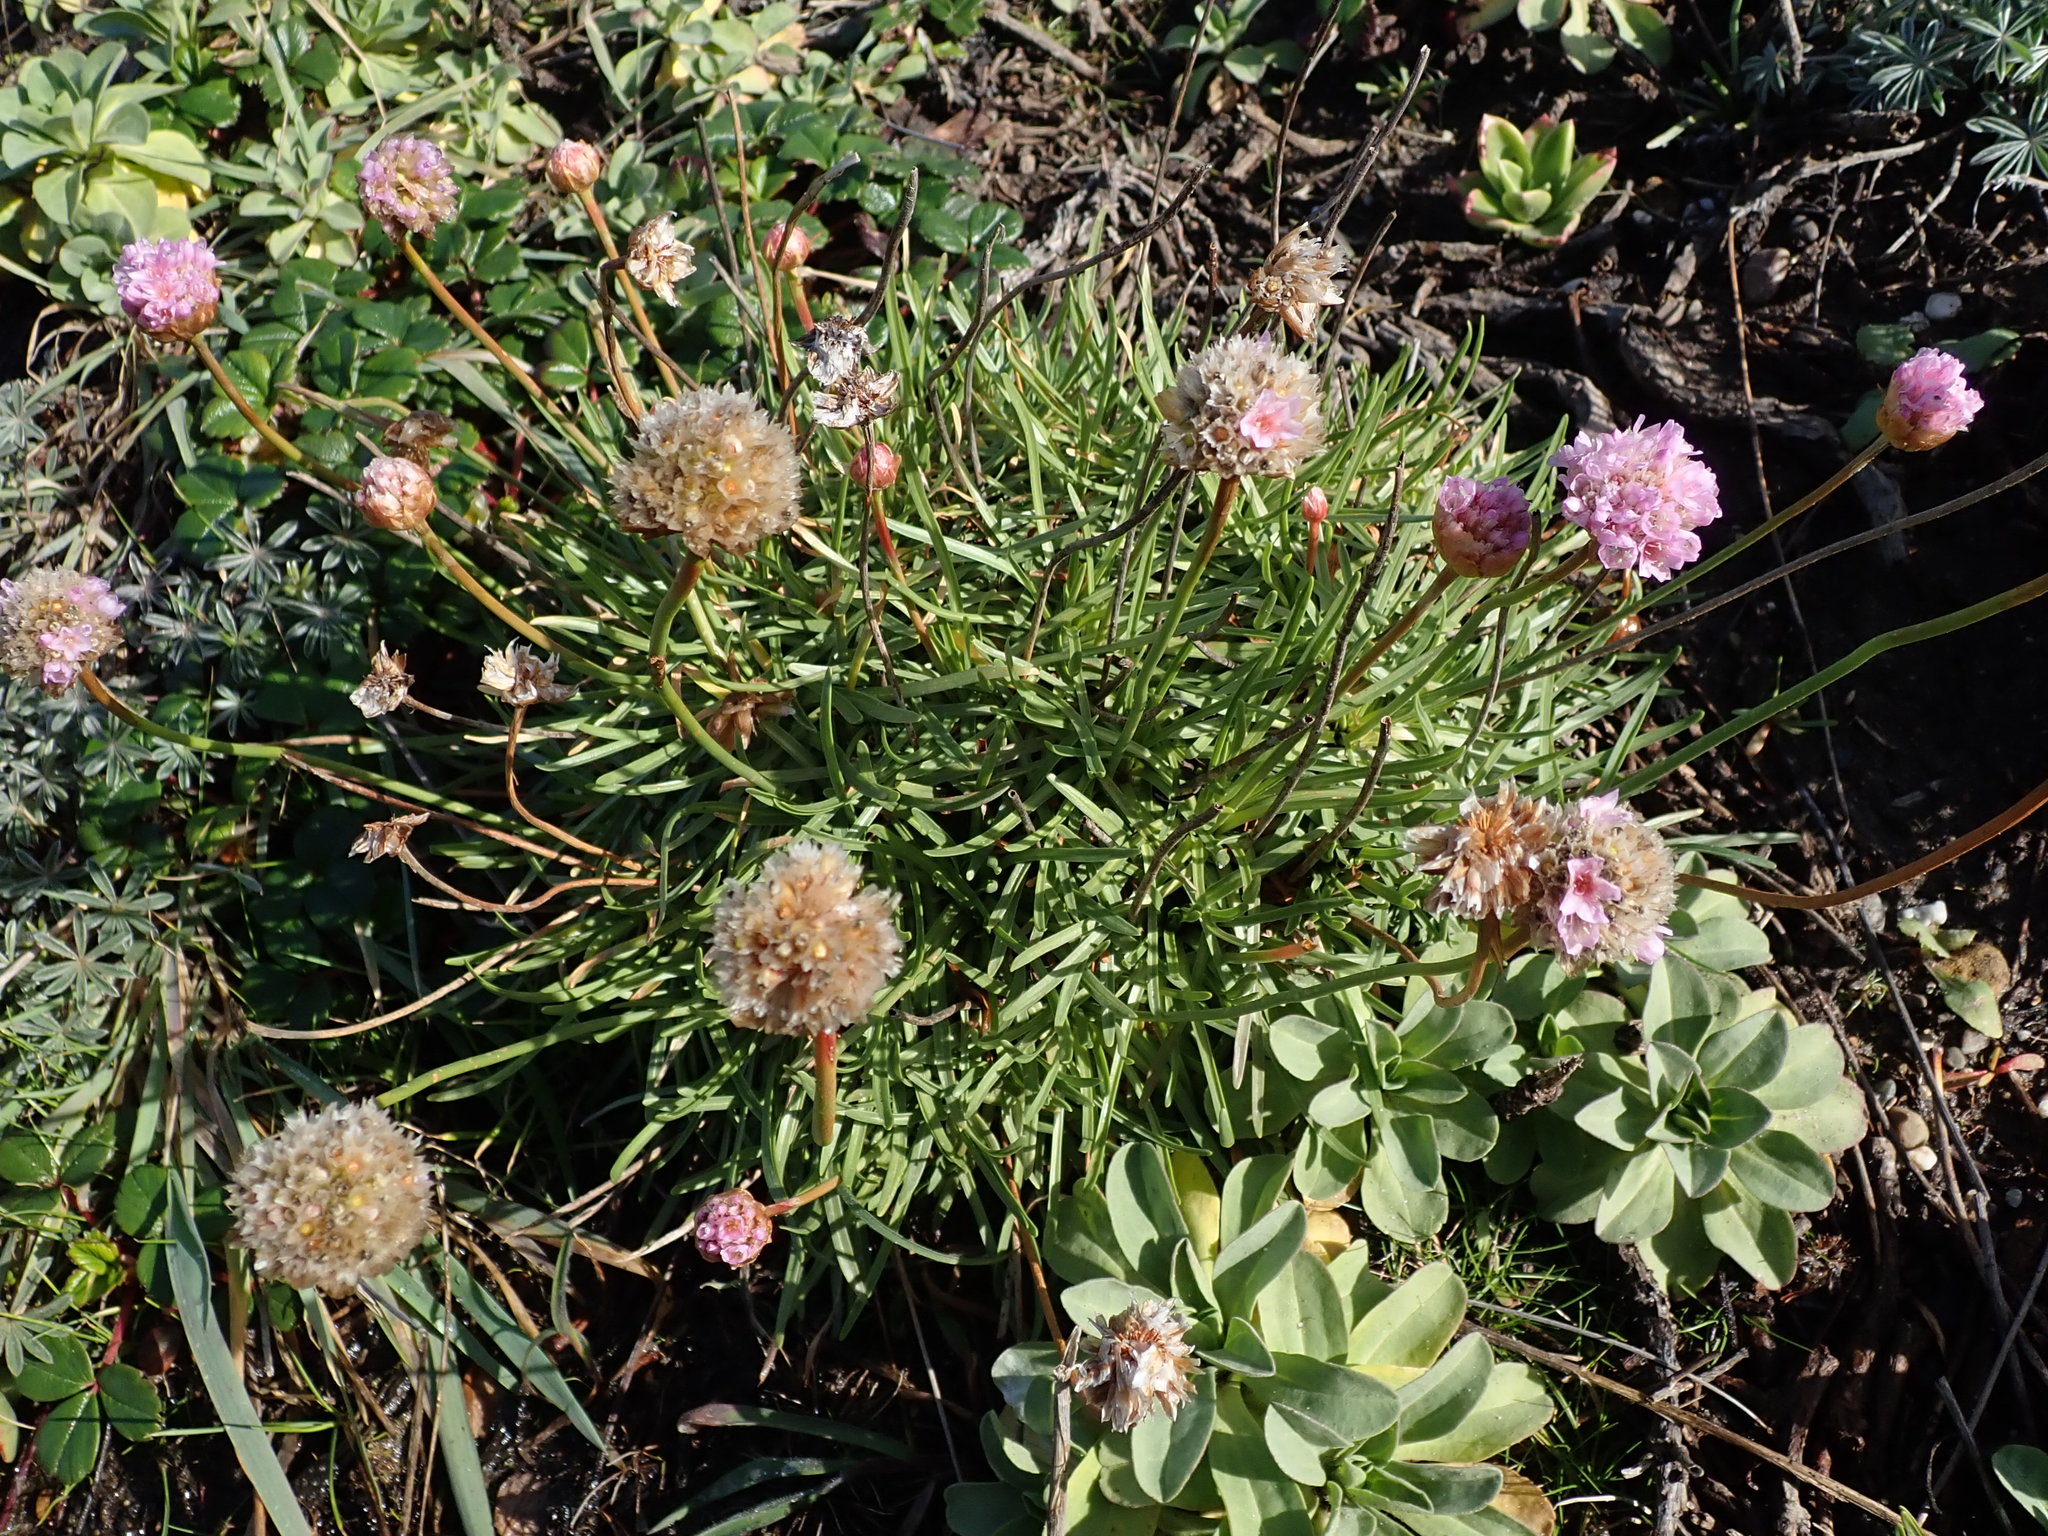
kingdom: Plantae
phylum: Tracheophyta
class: Magnoliopsida
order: Caryophyllales
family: Plumbaginaceae
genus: Armeria
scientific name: Armeria maritima
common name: Thrift
